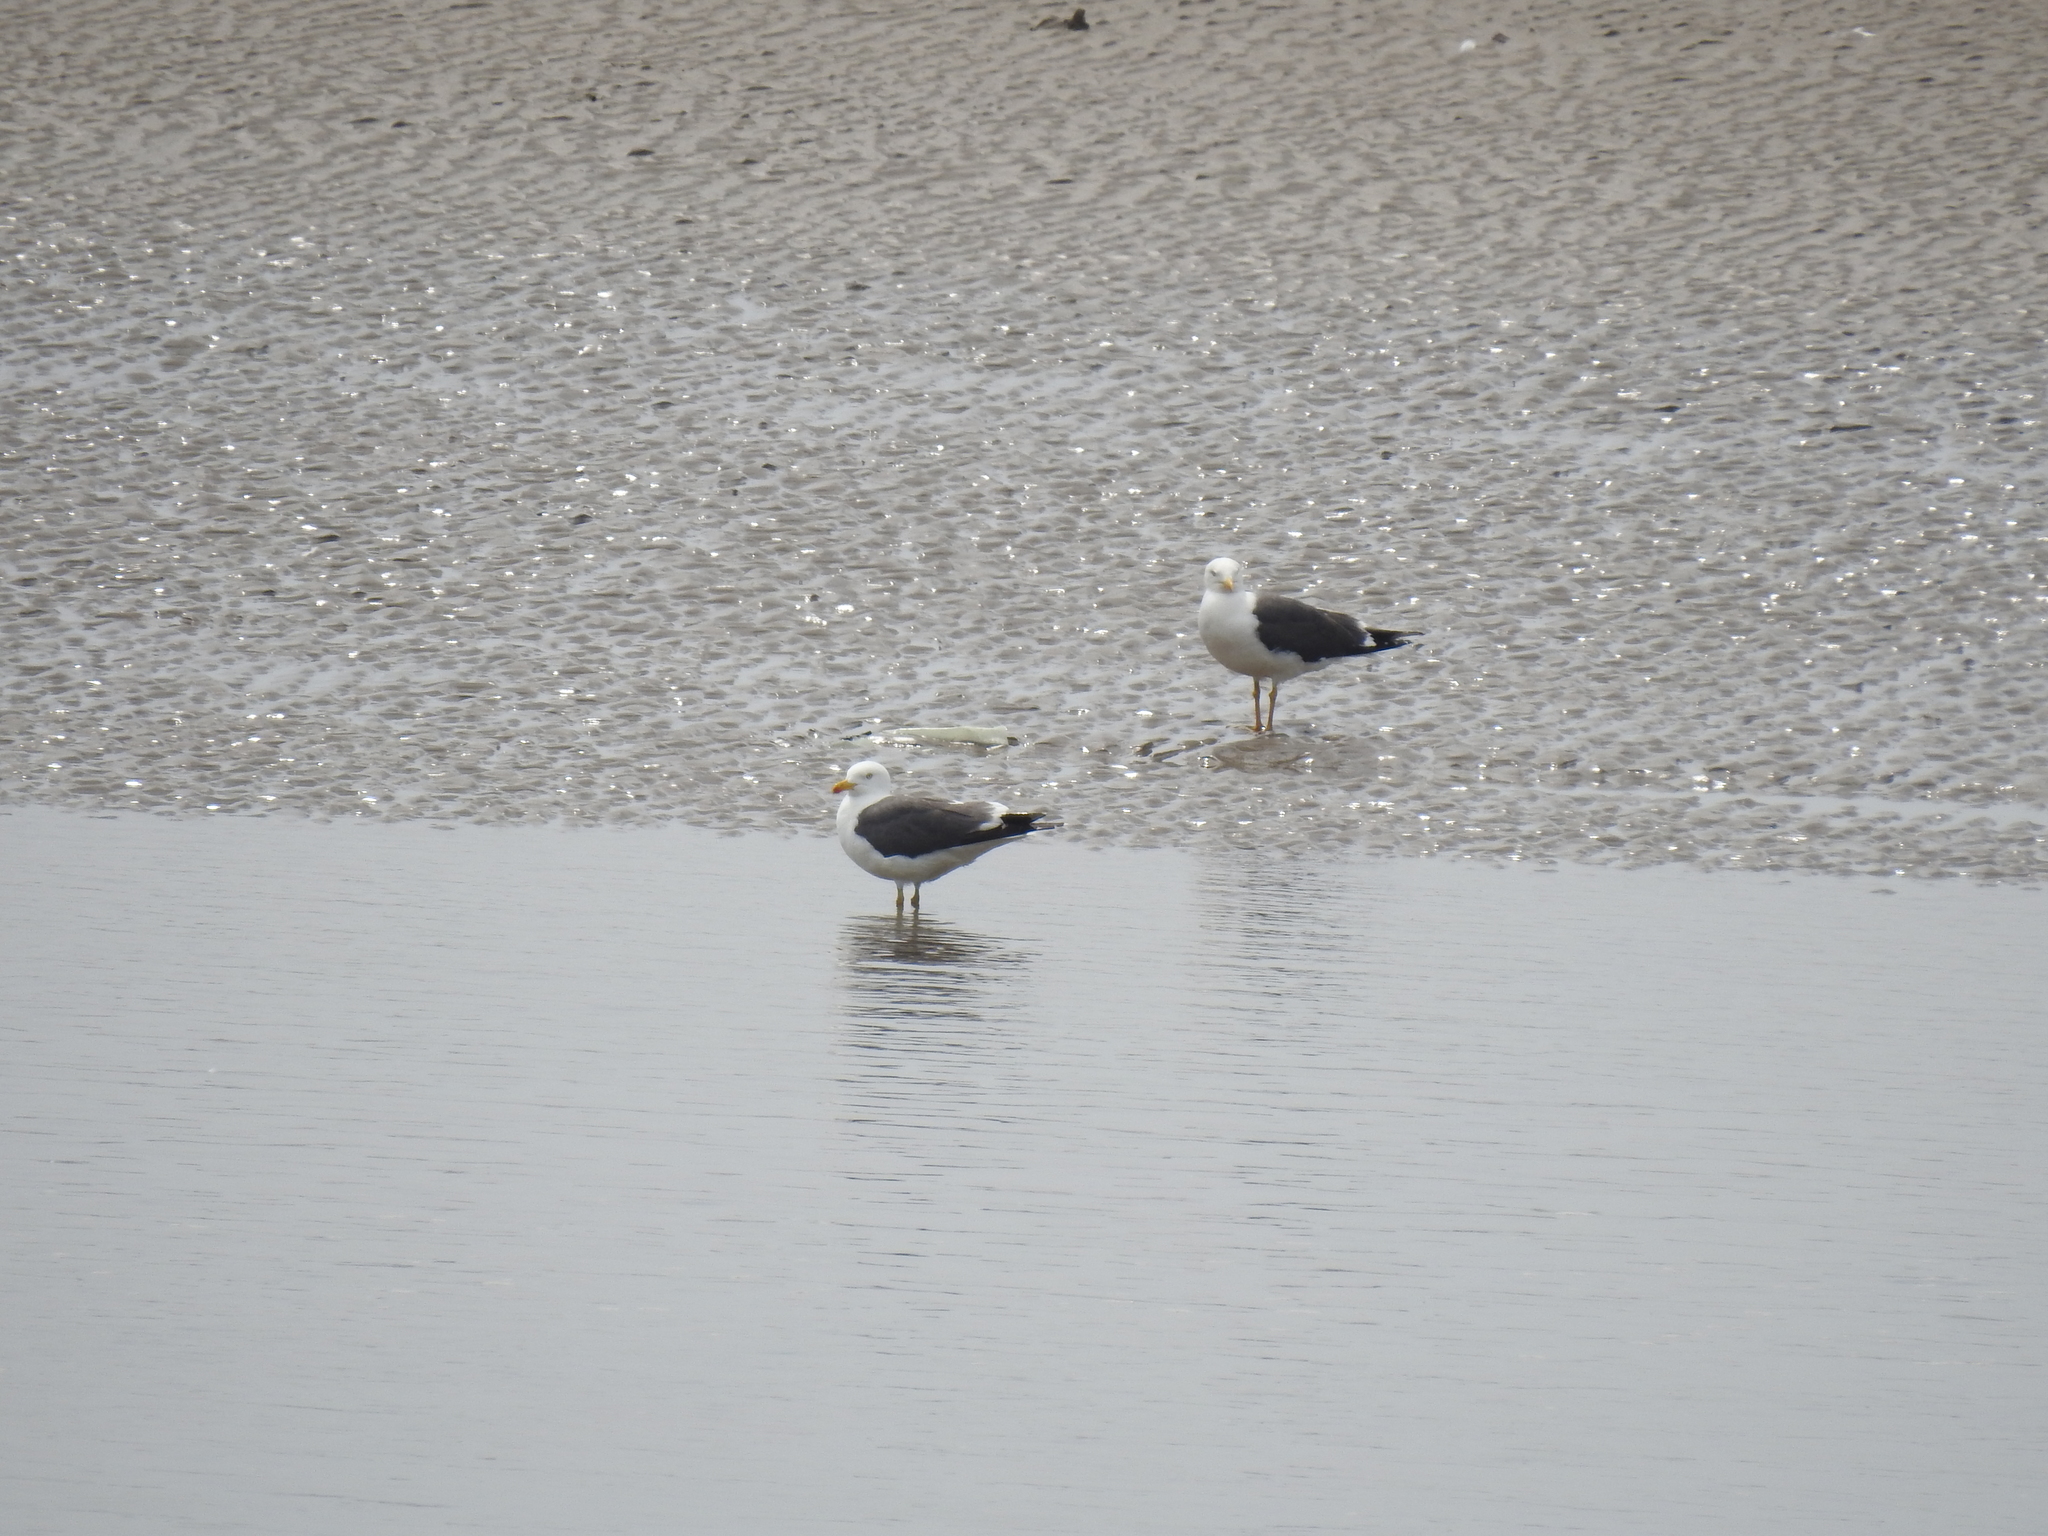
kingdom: Animalia
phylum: Chordata
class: Aves
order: Charadriiformes
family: Laridae
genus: Larus
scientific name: Larus fuscus
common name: Lesser black-backed gull
